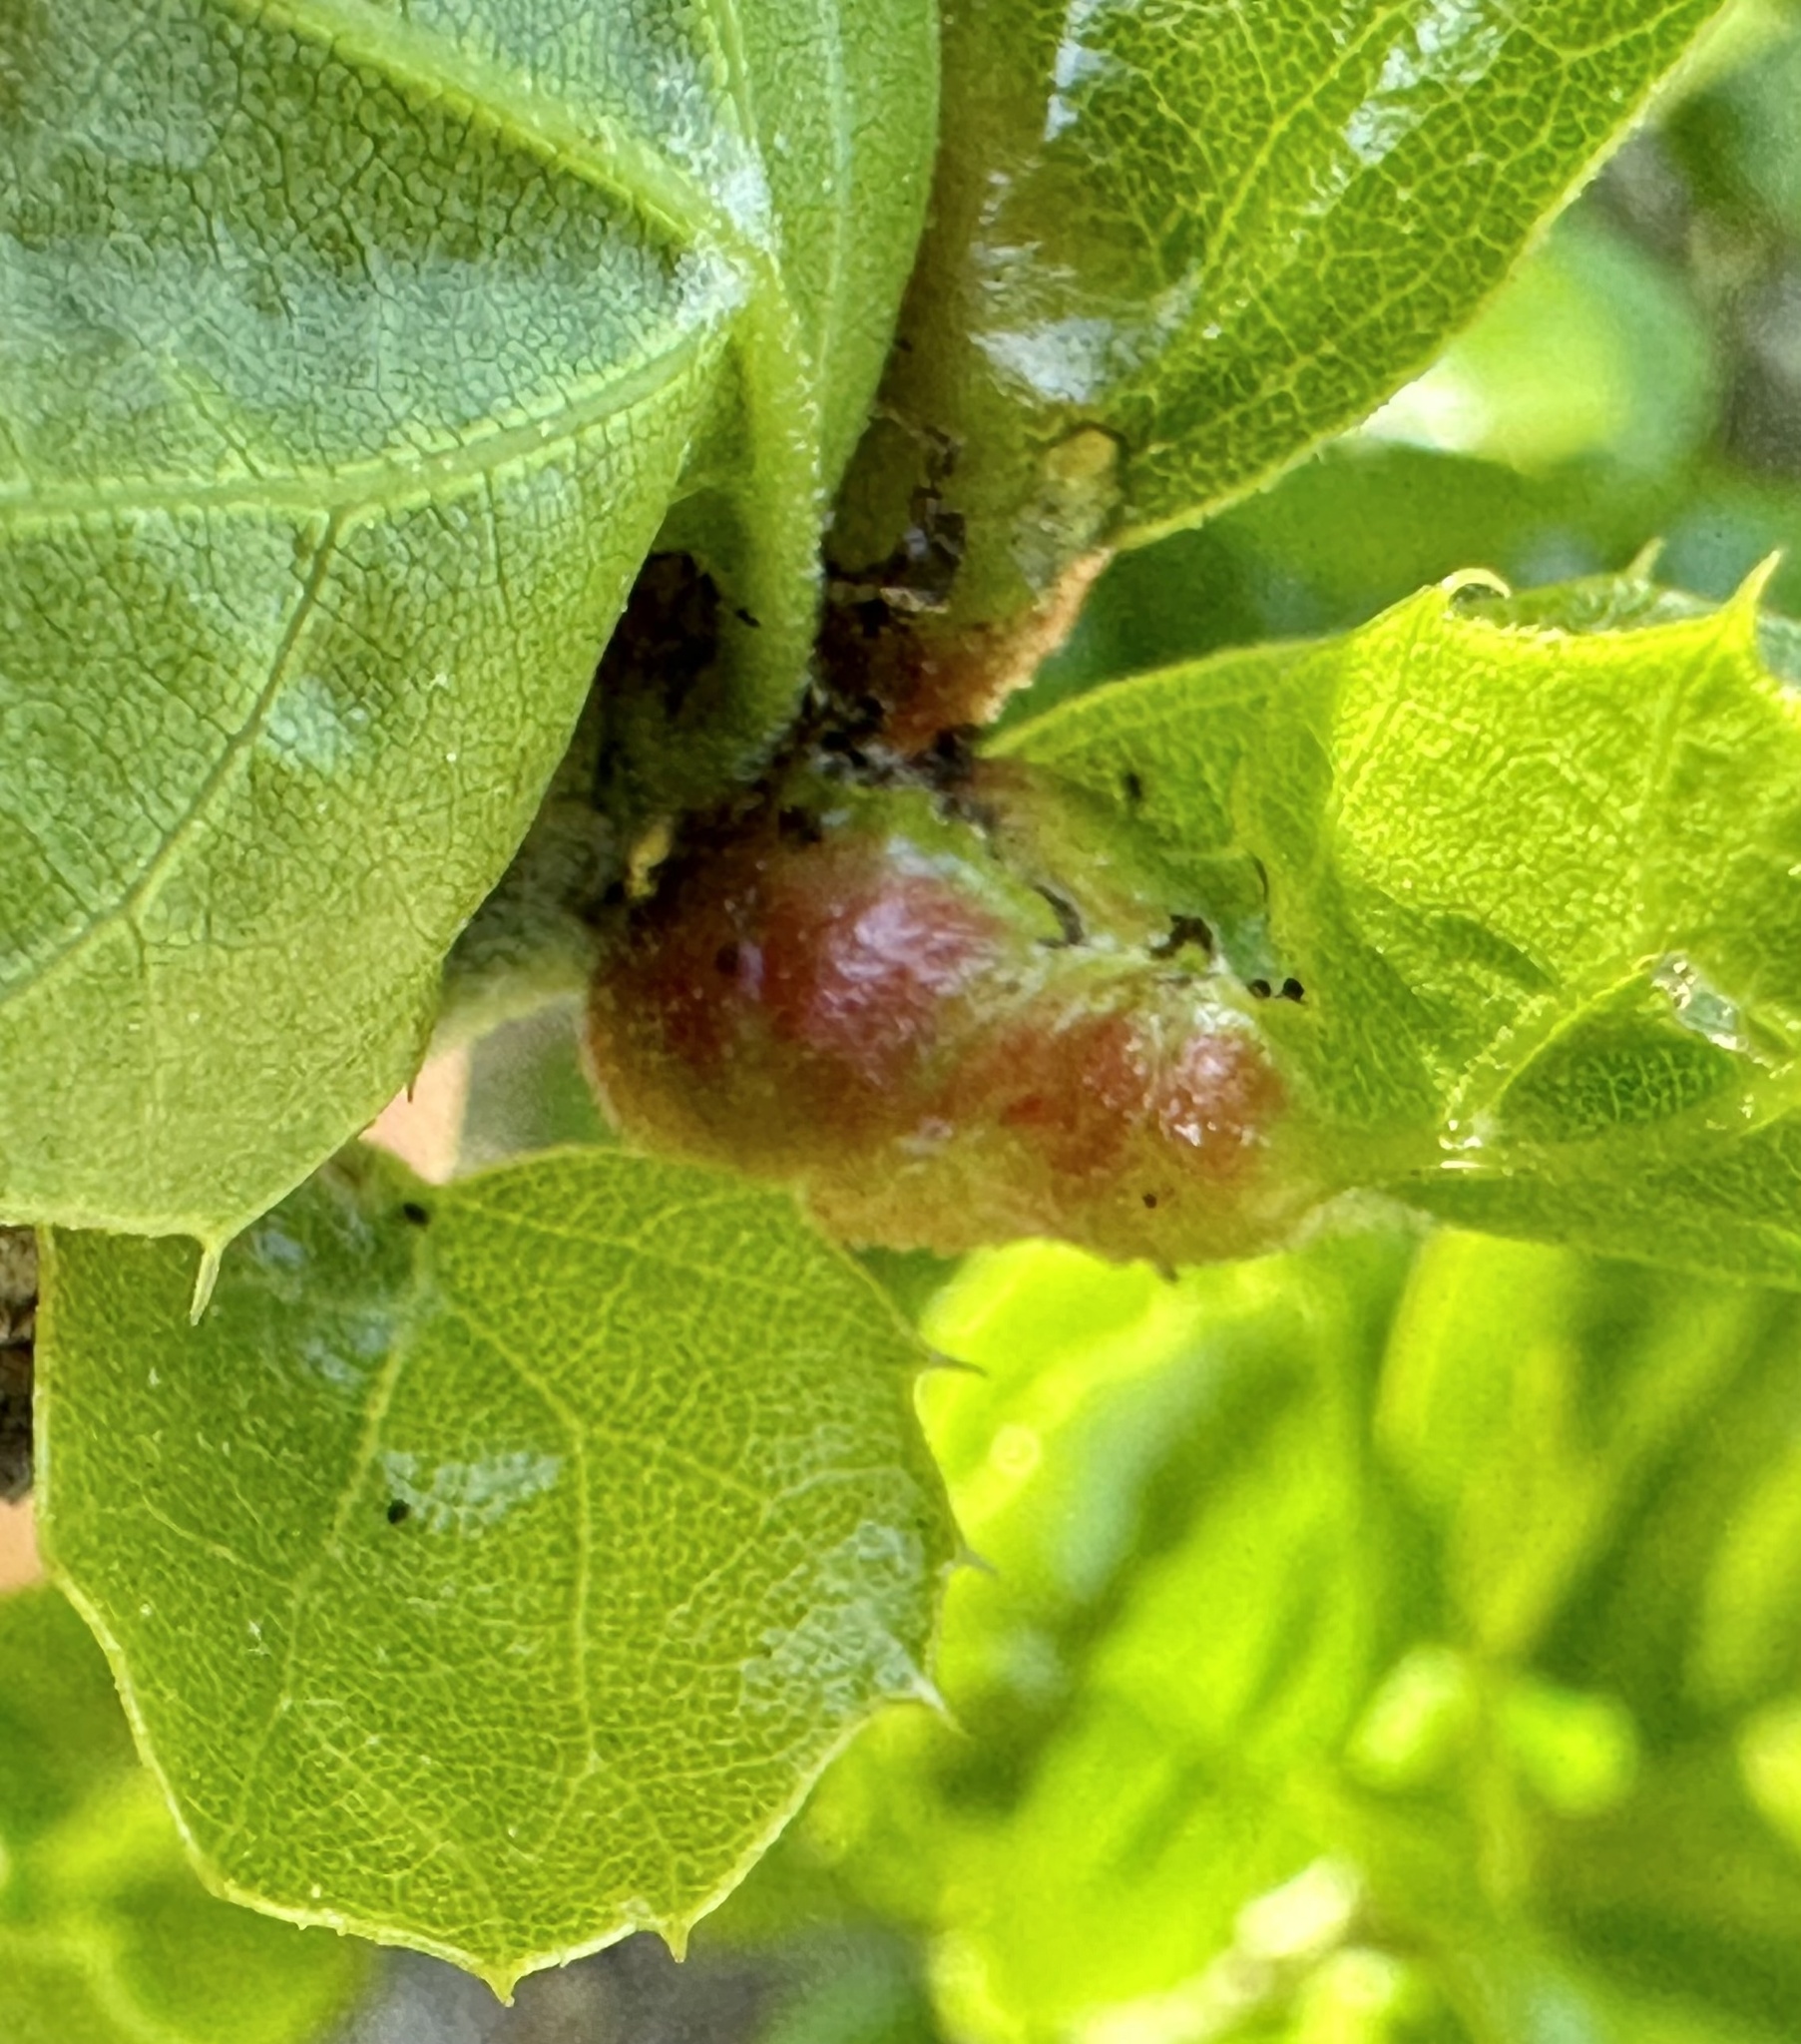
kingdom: Animalia
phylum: Arthropoda
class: Insecta
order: Hymenoptera
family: Cynipidae
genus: Melikaiella
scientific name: Melikaiella
